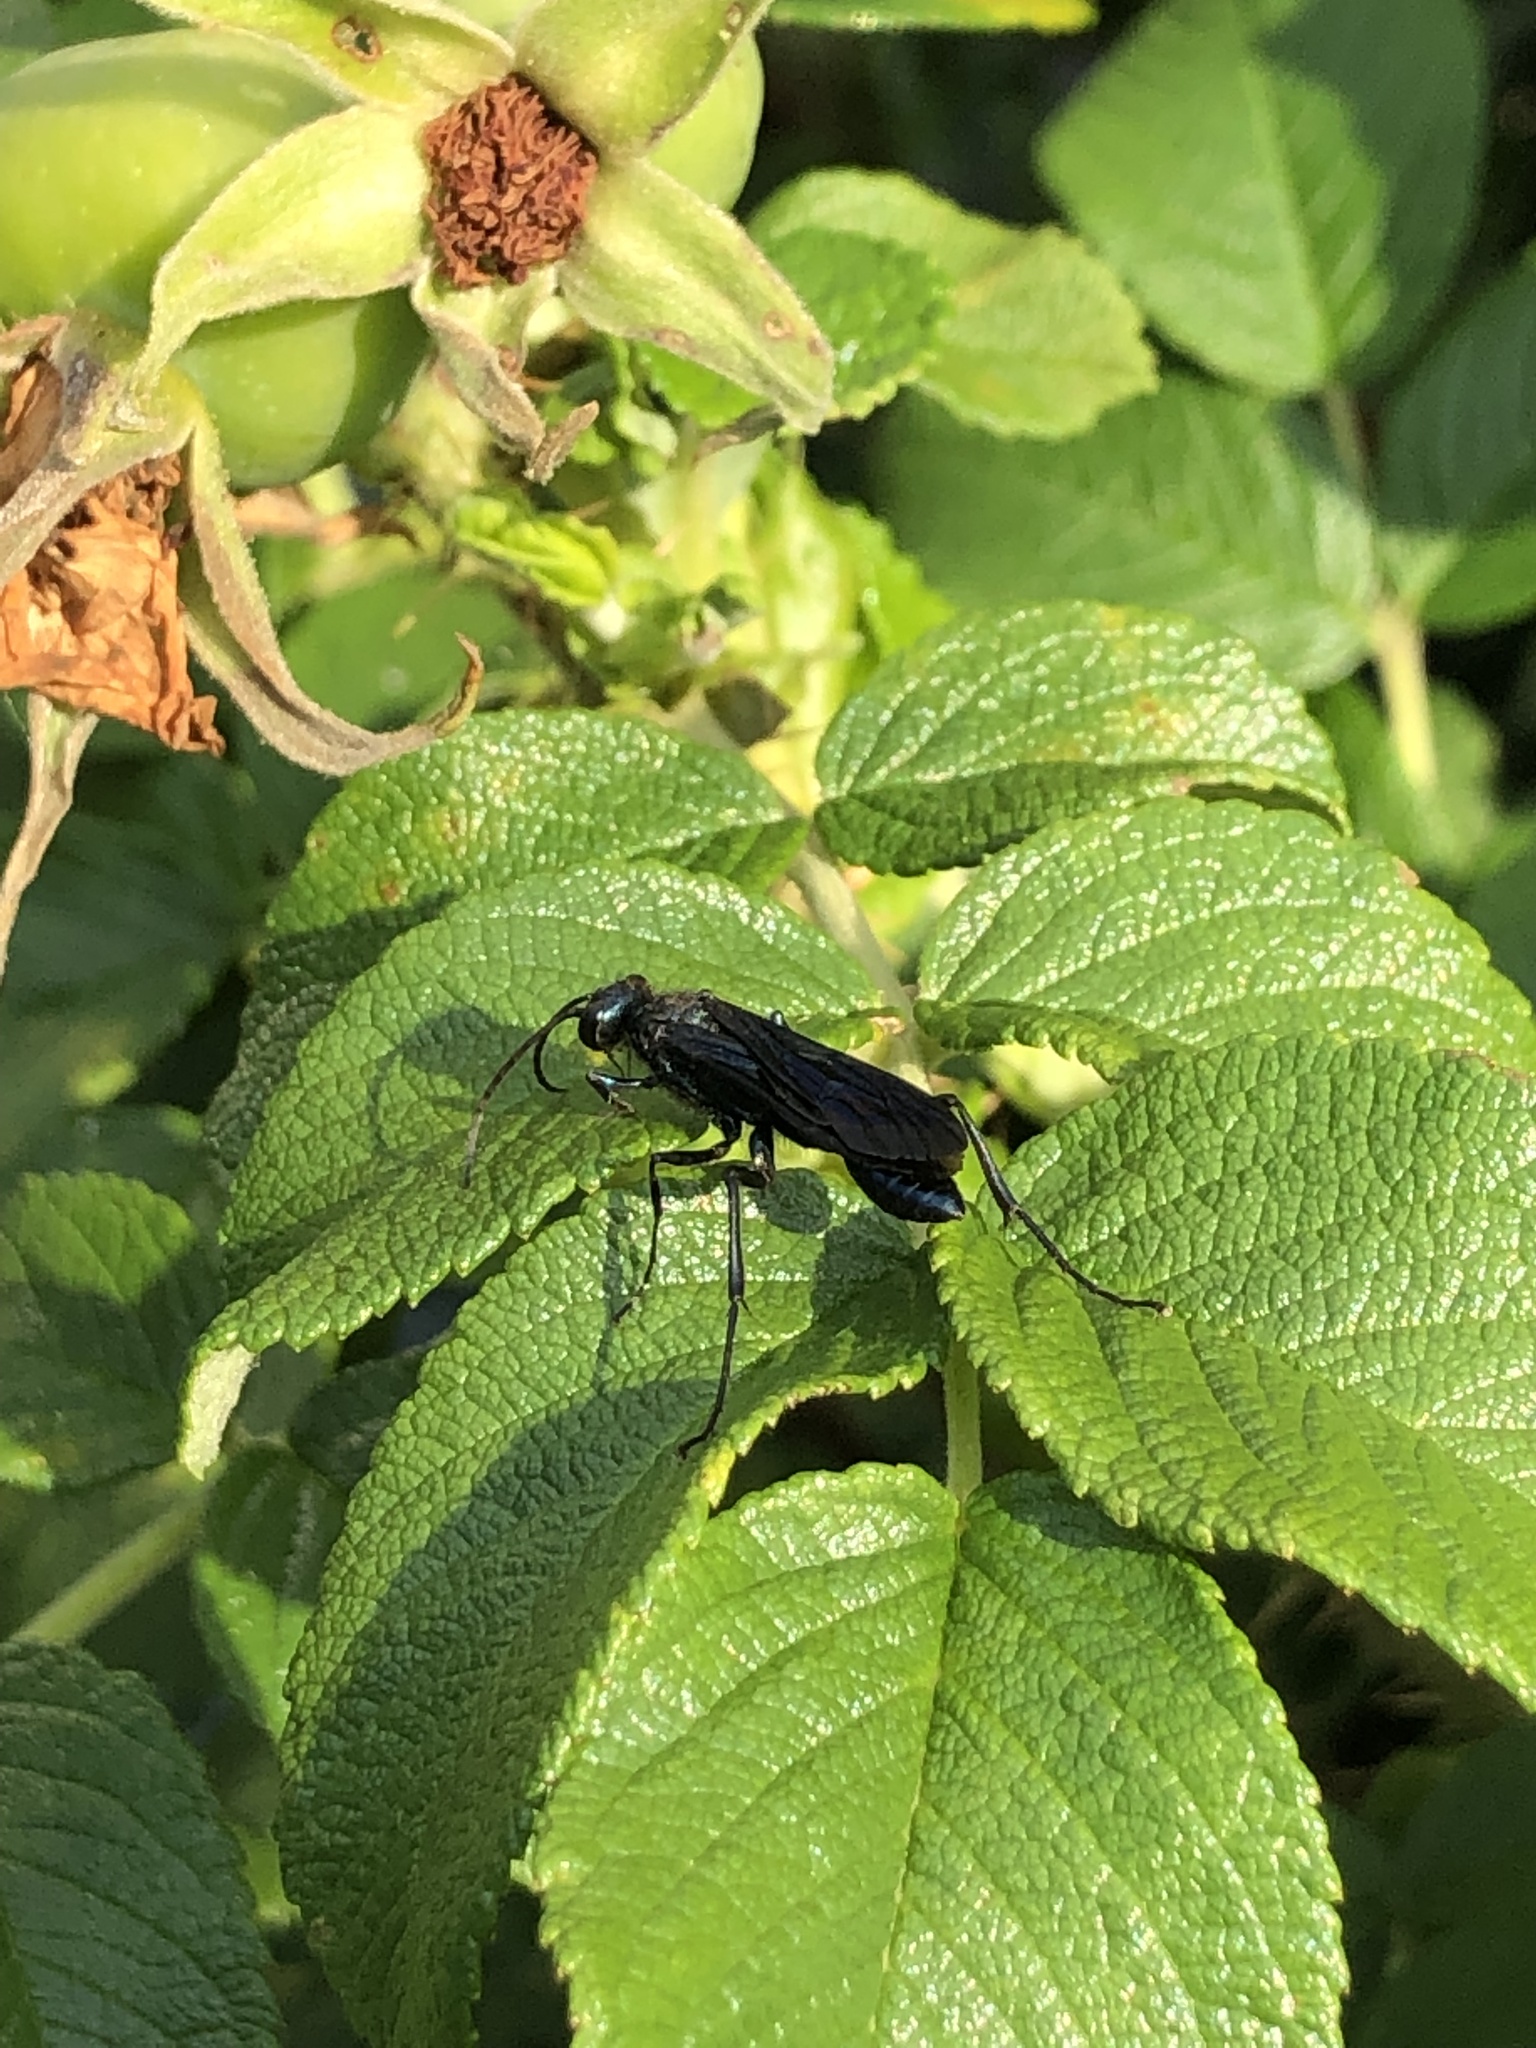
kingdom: Animalia
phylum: Arthropoda
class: Insecta
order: Hymenoptera
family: Sphecidae
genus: Chalybion
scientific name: Chalybion californicum
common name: Mud dauber
